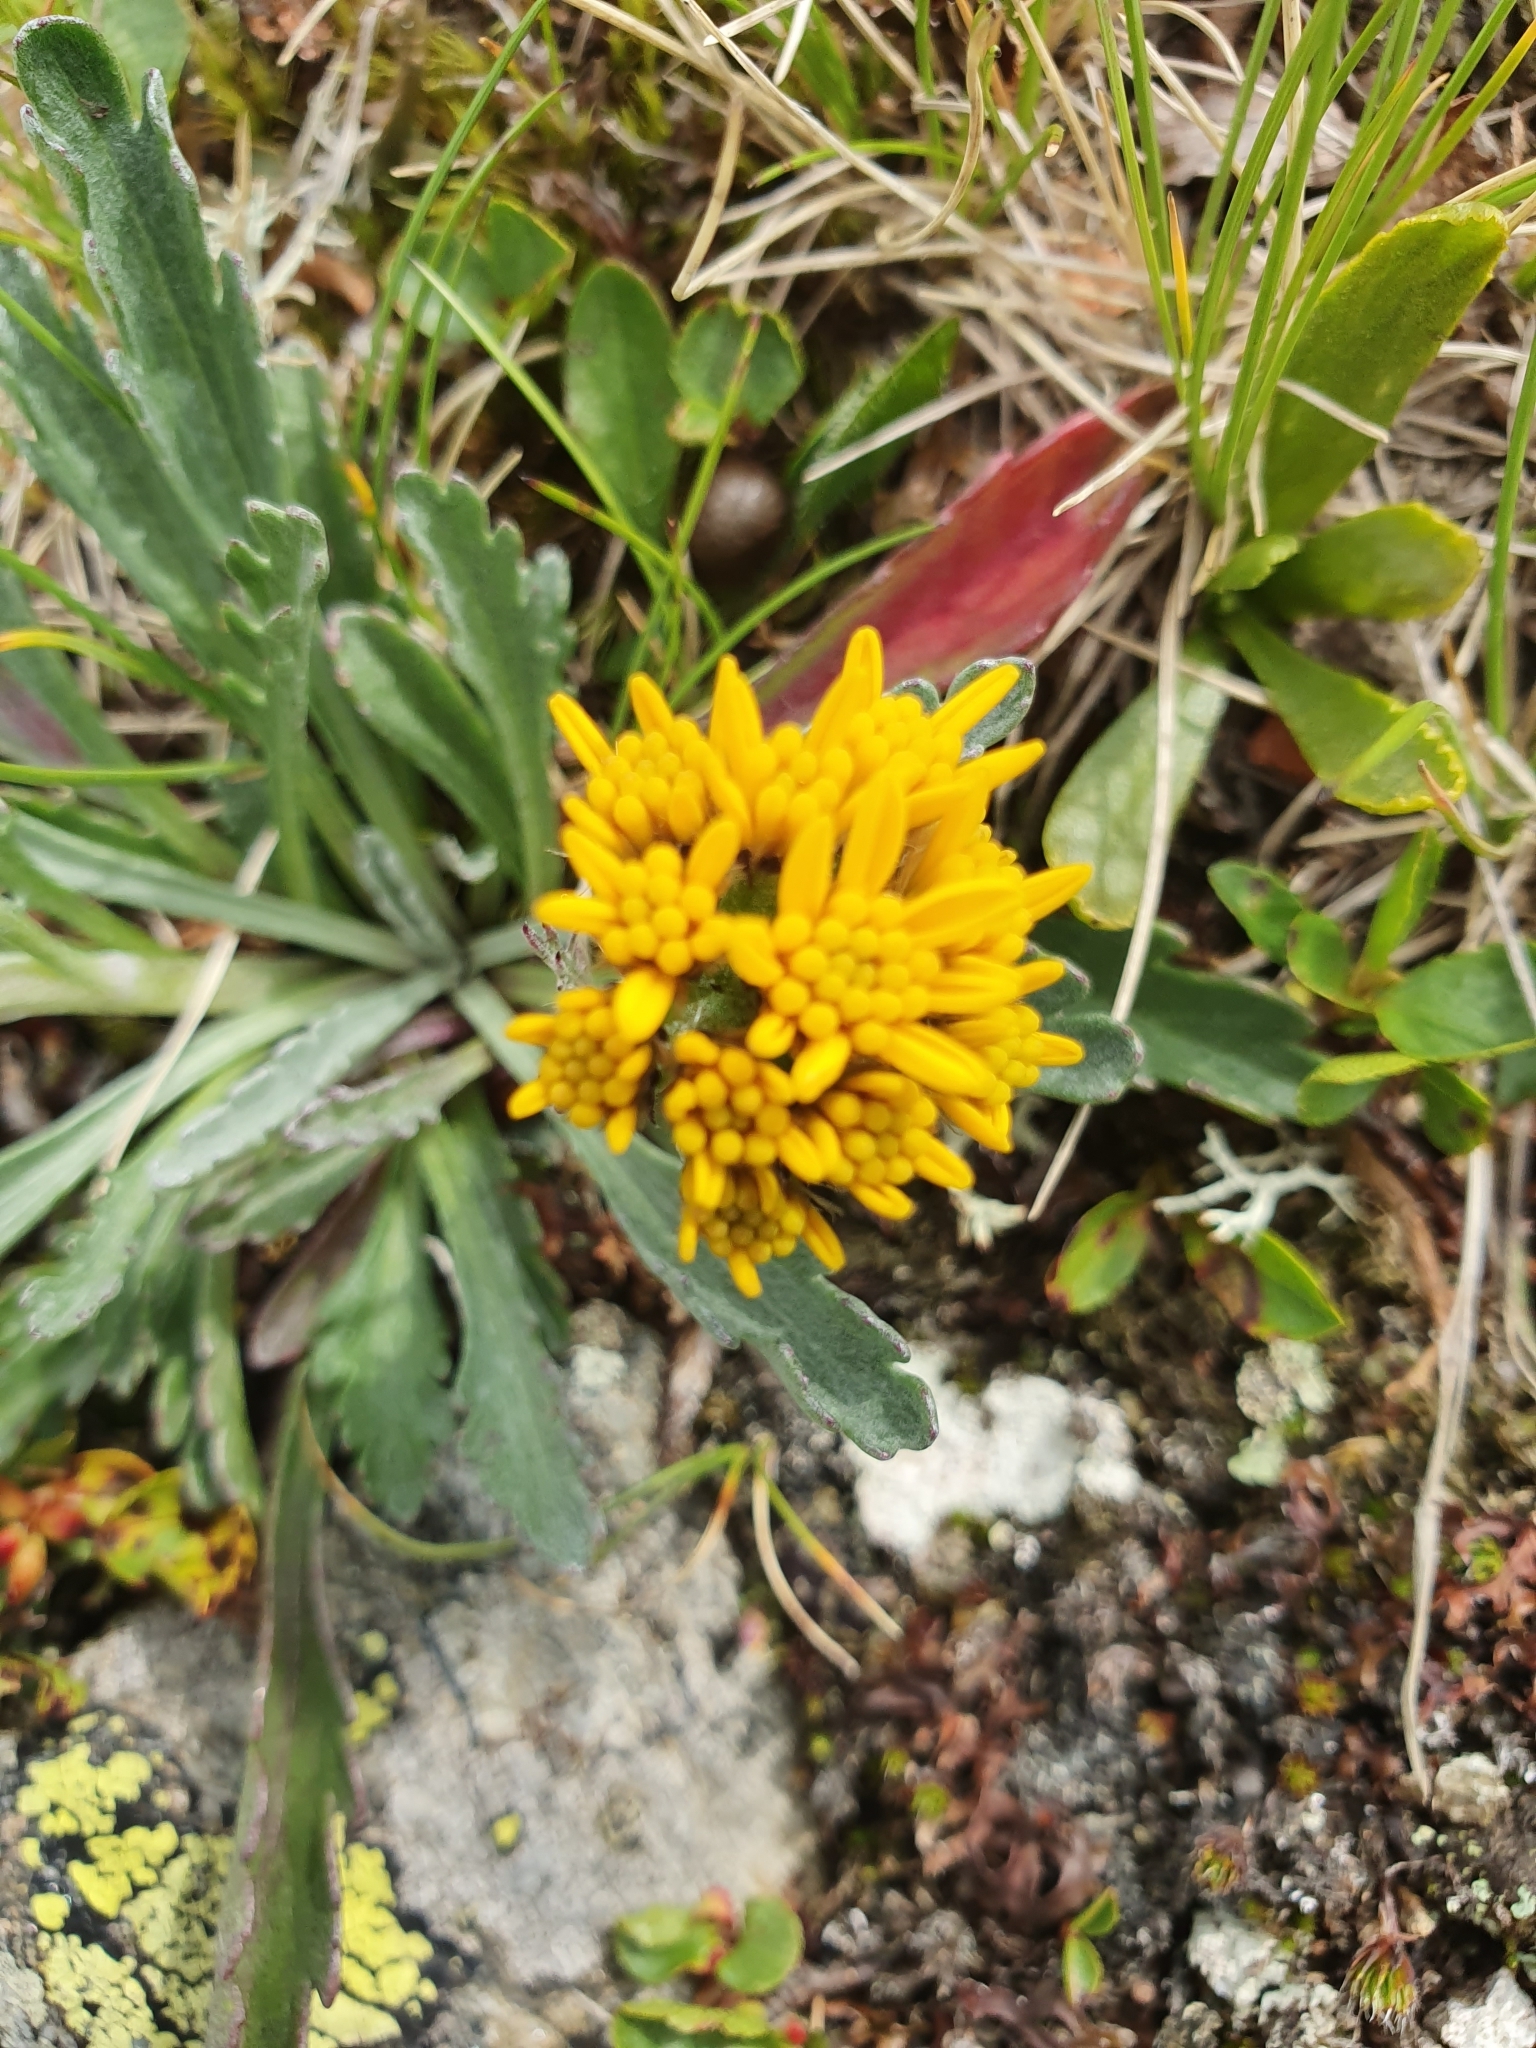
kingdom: Plantae
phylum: Tracheophyta
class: Magnoliopsida
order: Asterales
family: Asteraceae
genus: Jacobaea
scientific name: Jacobaea carniolica
